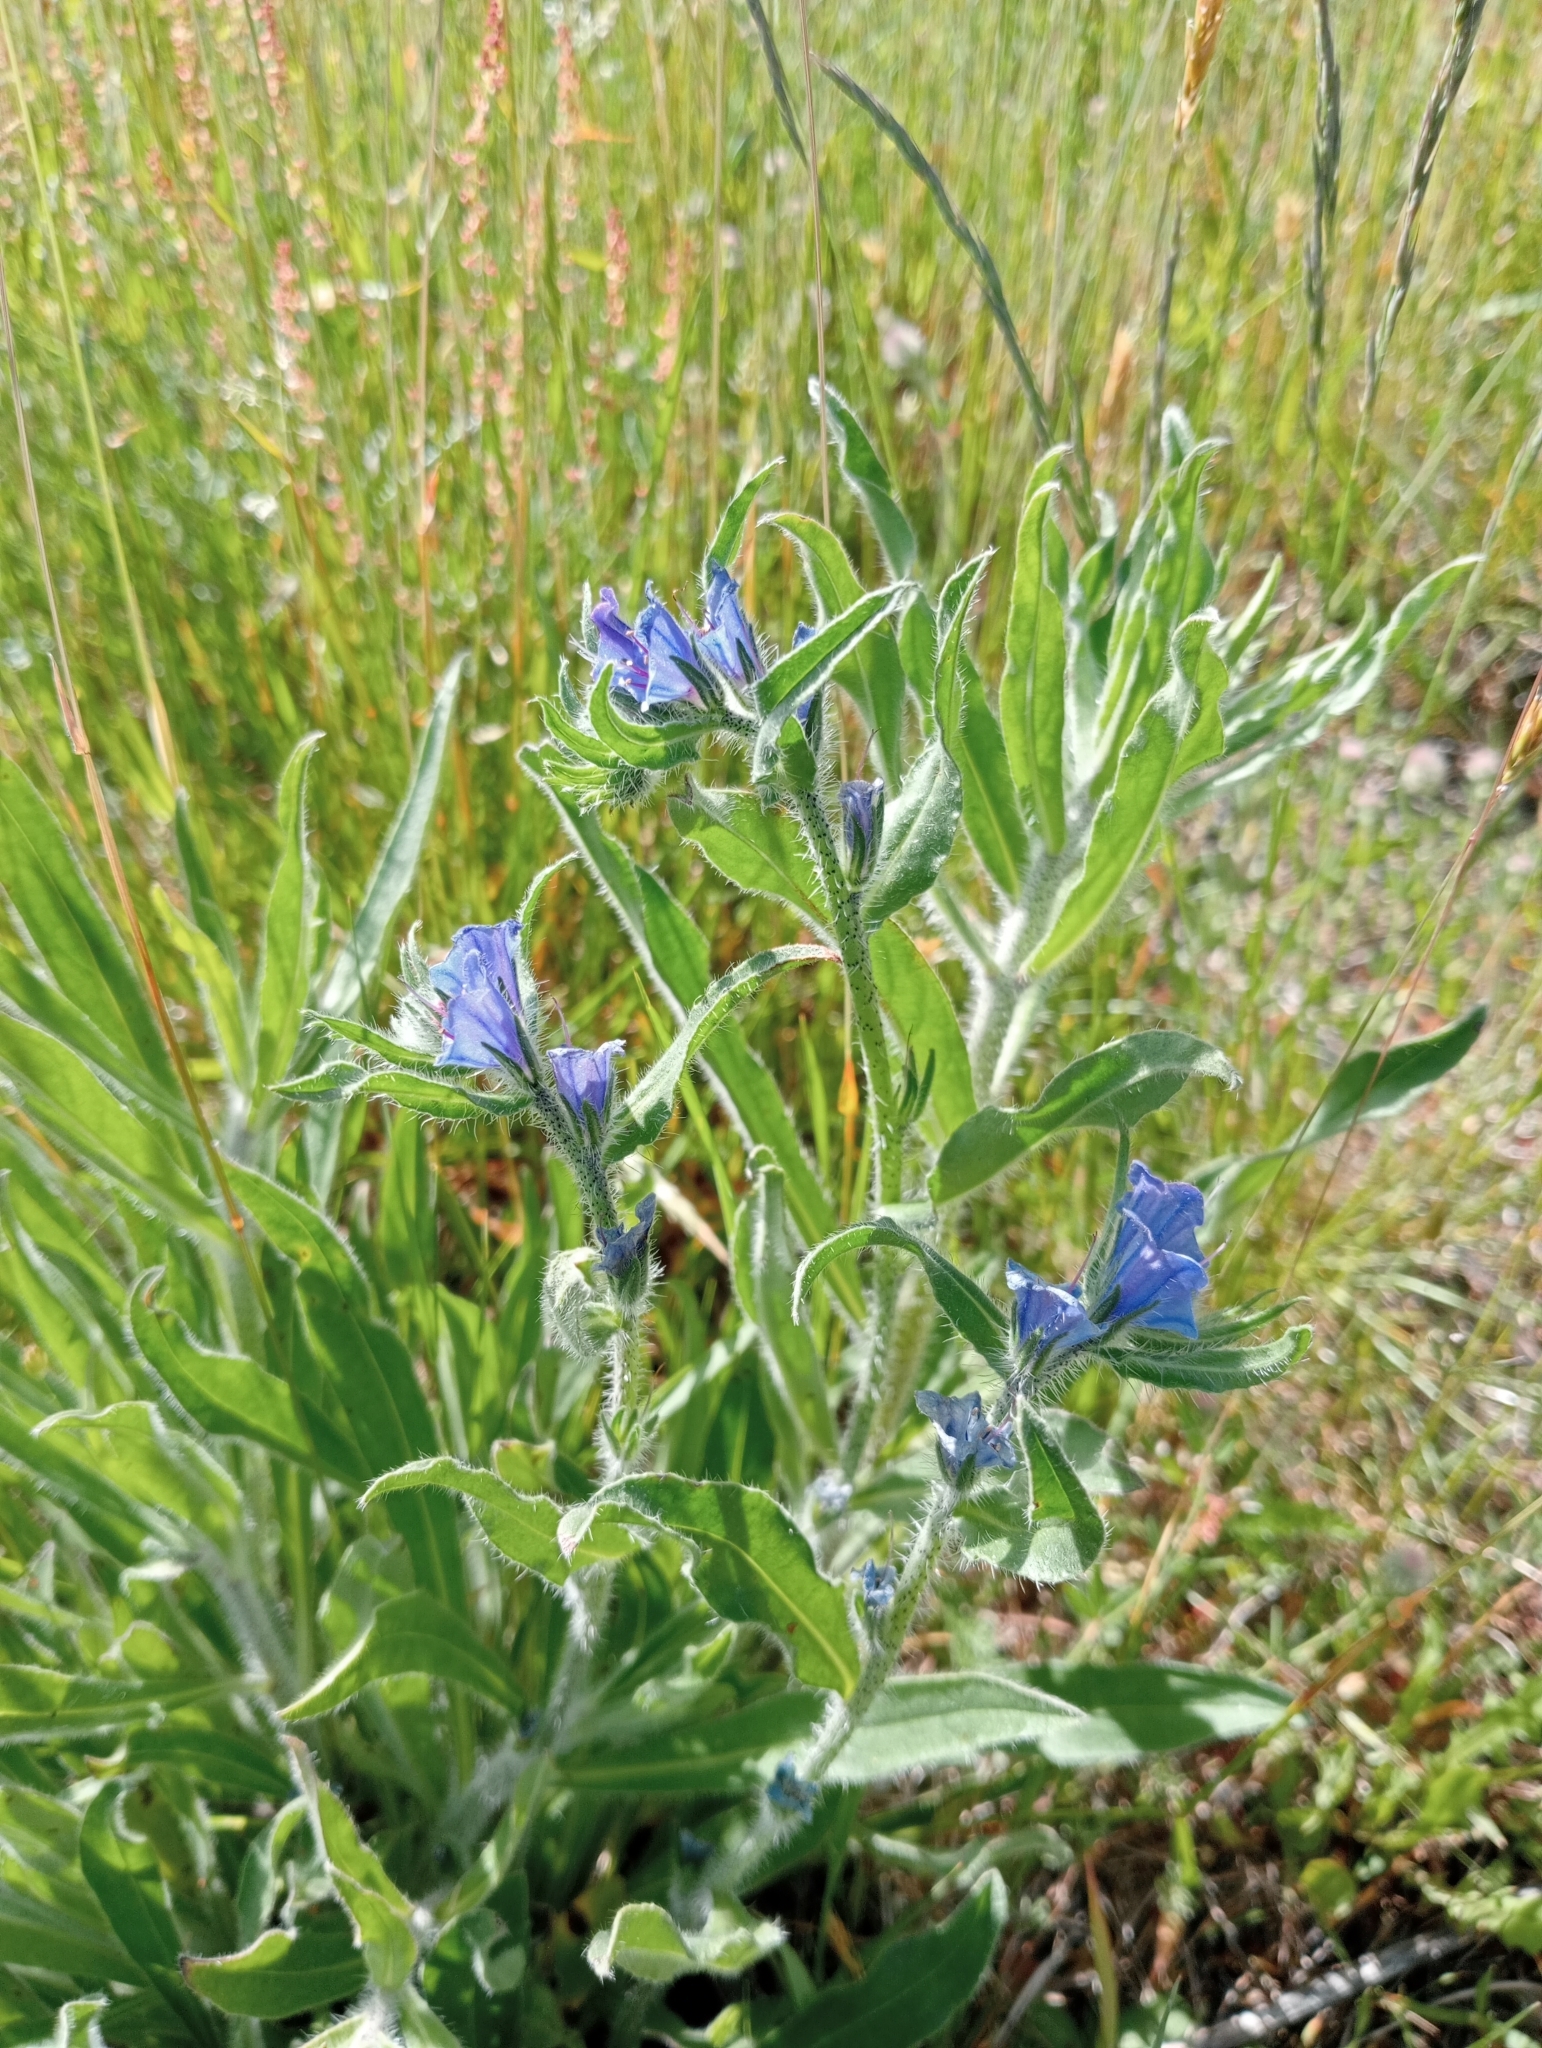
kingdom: Plantae
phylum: Tracheophyta
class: Magnoliopsida
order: Boraginales
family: Boraginaceae
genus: Echium
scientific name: Echium vulgare
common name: Common viper's bugloss
